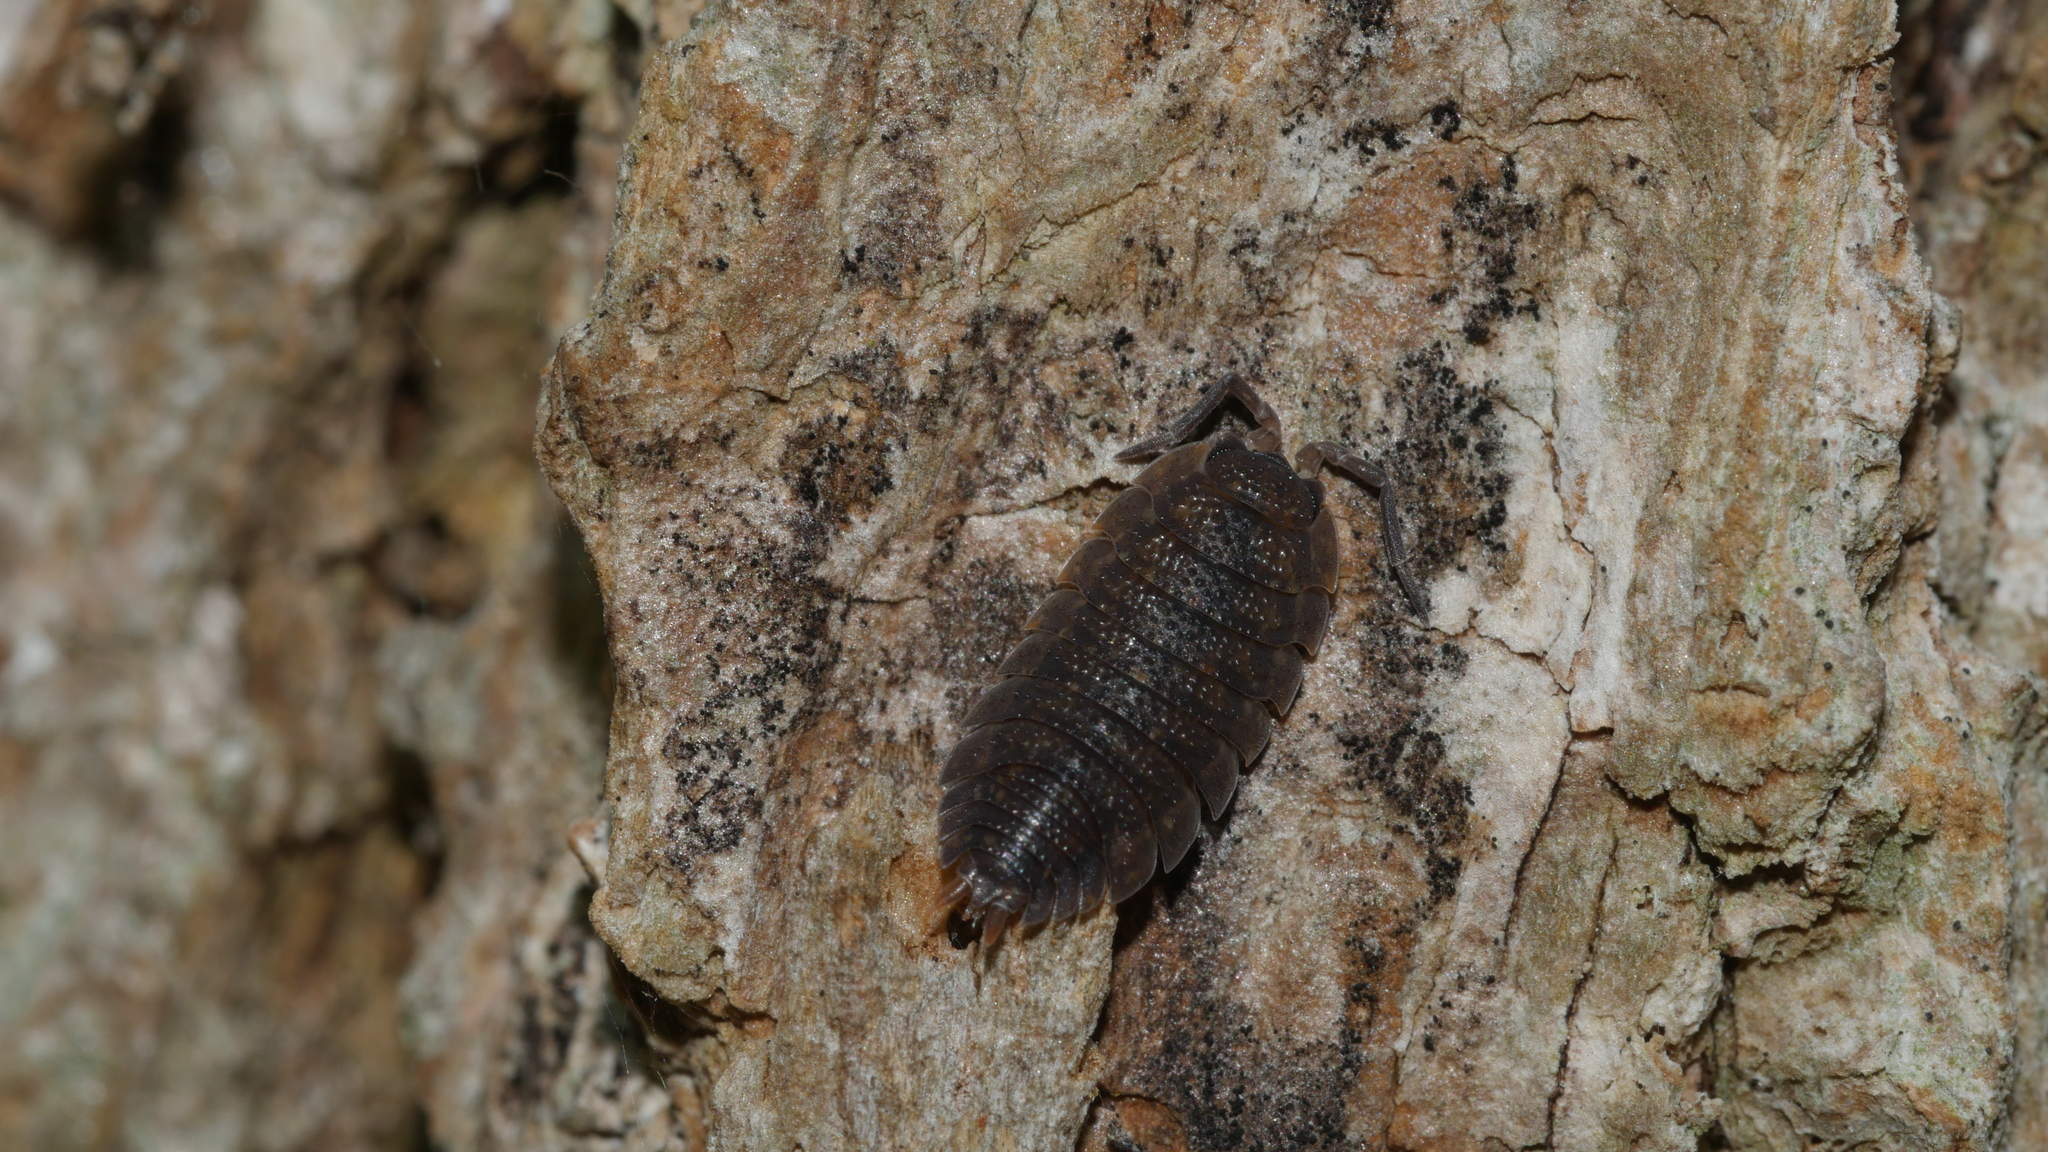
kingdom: Animalia
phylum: Arthropoda
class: Malacostraca
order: Isopoda
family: Porcellionidae
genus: Porcellio
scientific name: Porcellio scaber
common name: Common rough woodlouse
